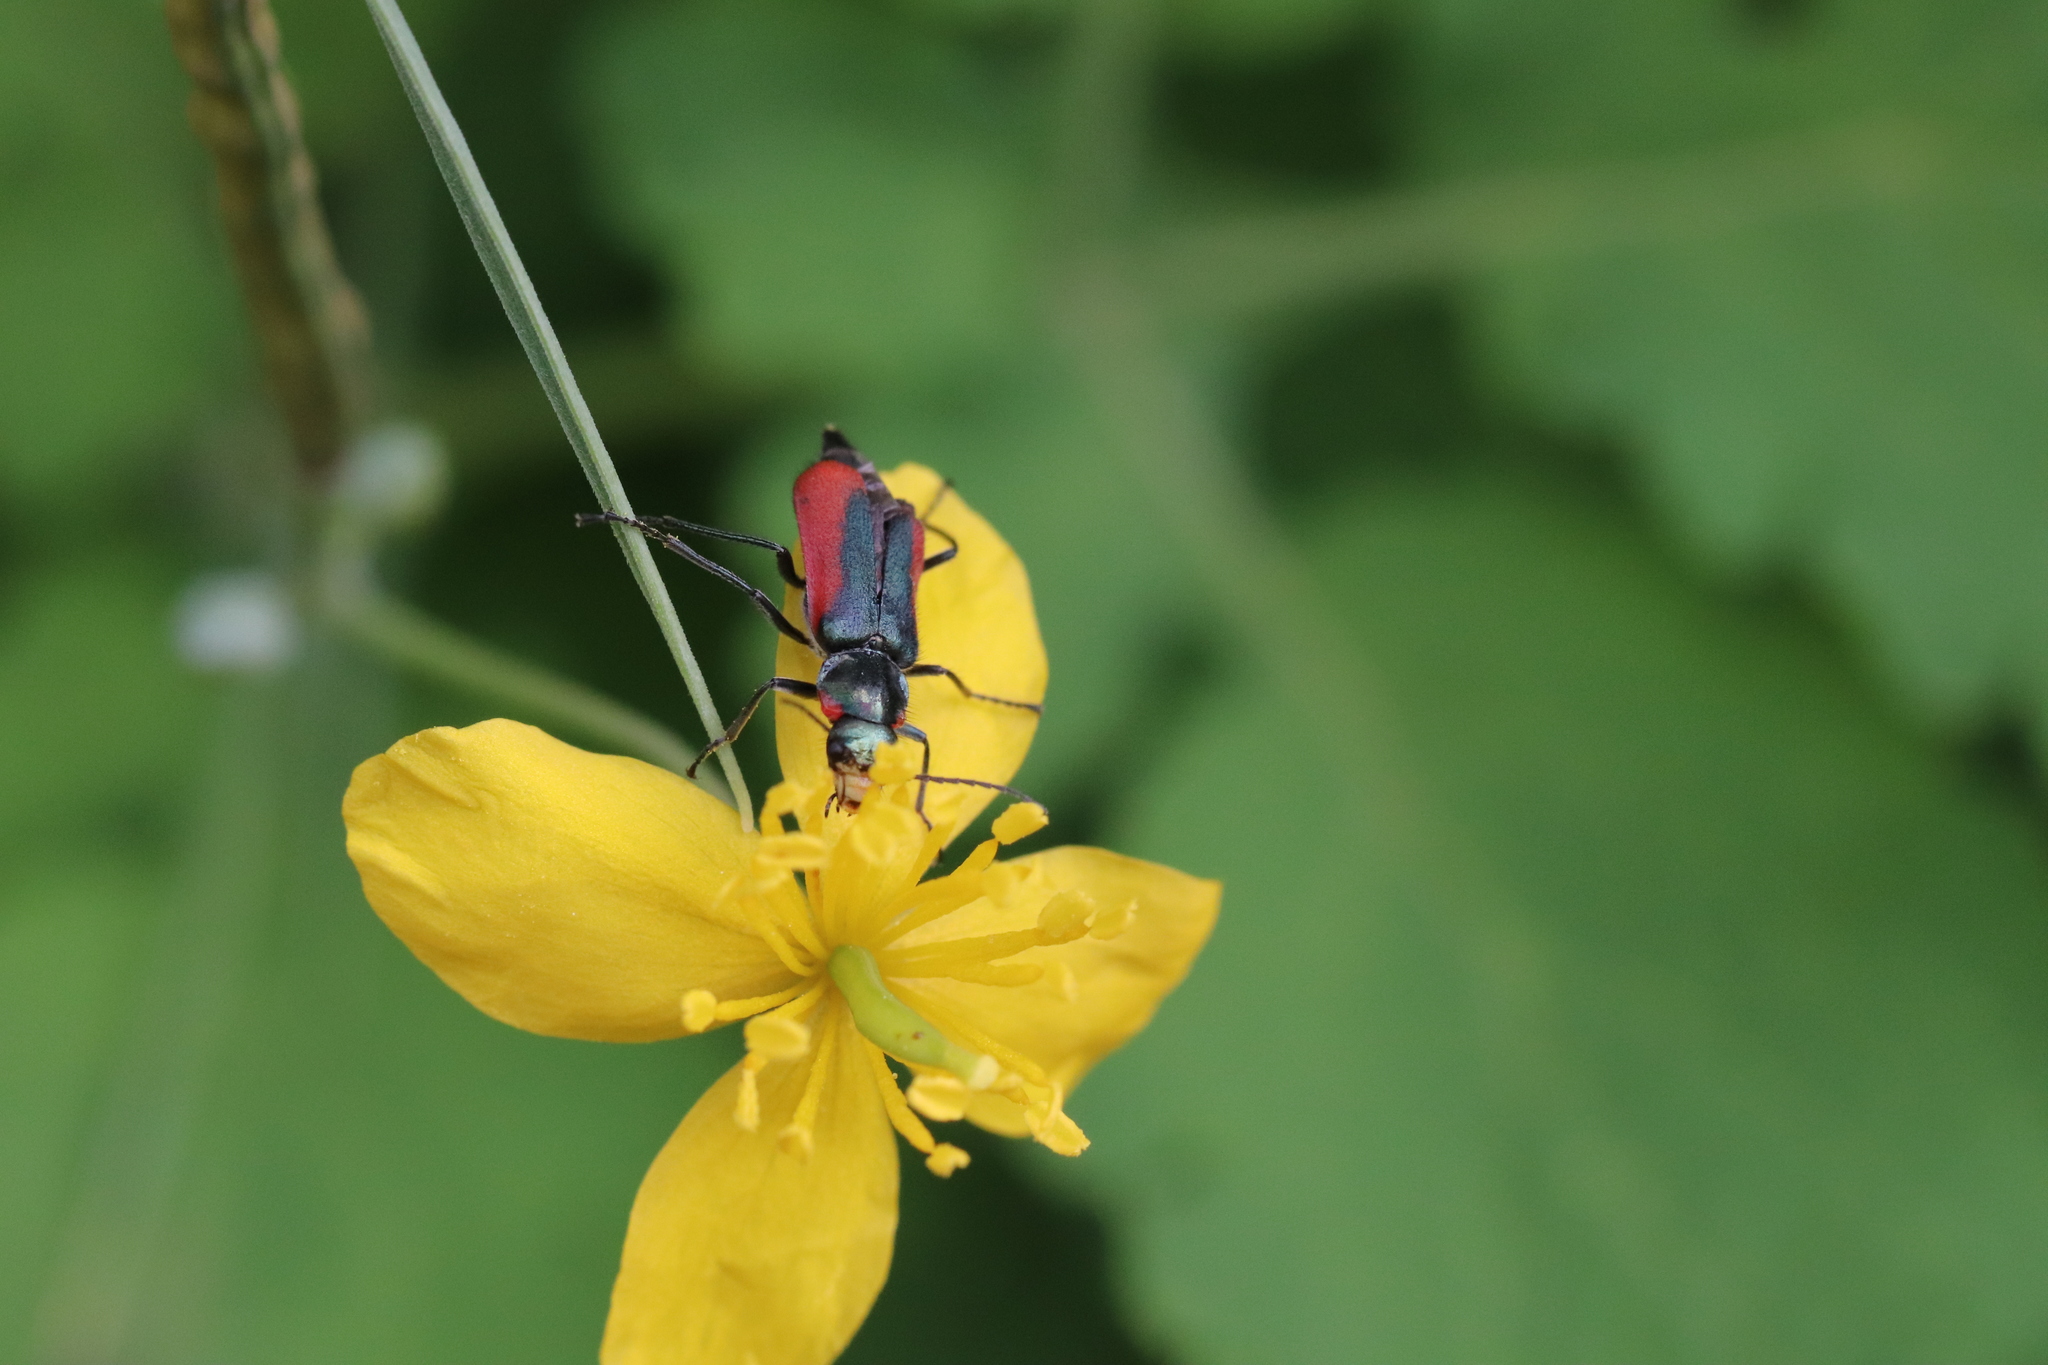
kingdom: Animalia
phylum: Arthropoda
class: Insecta
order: Coleoptera
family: Melyridae
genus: Malachius
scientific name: Malachius aeneus
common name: Scarlet malachite beetle
